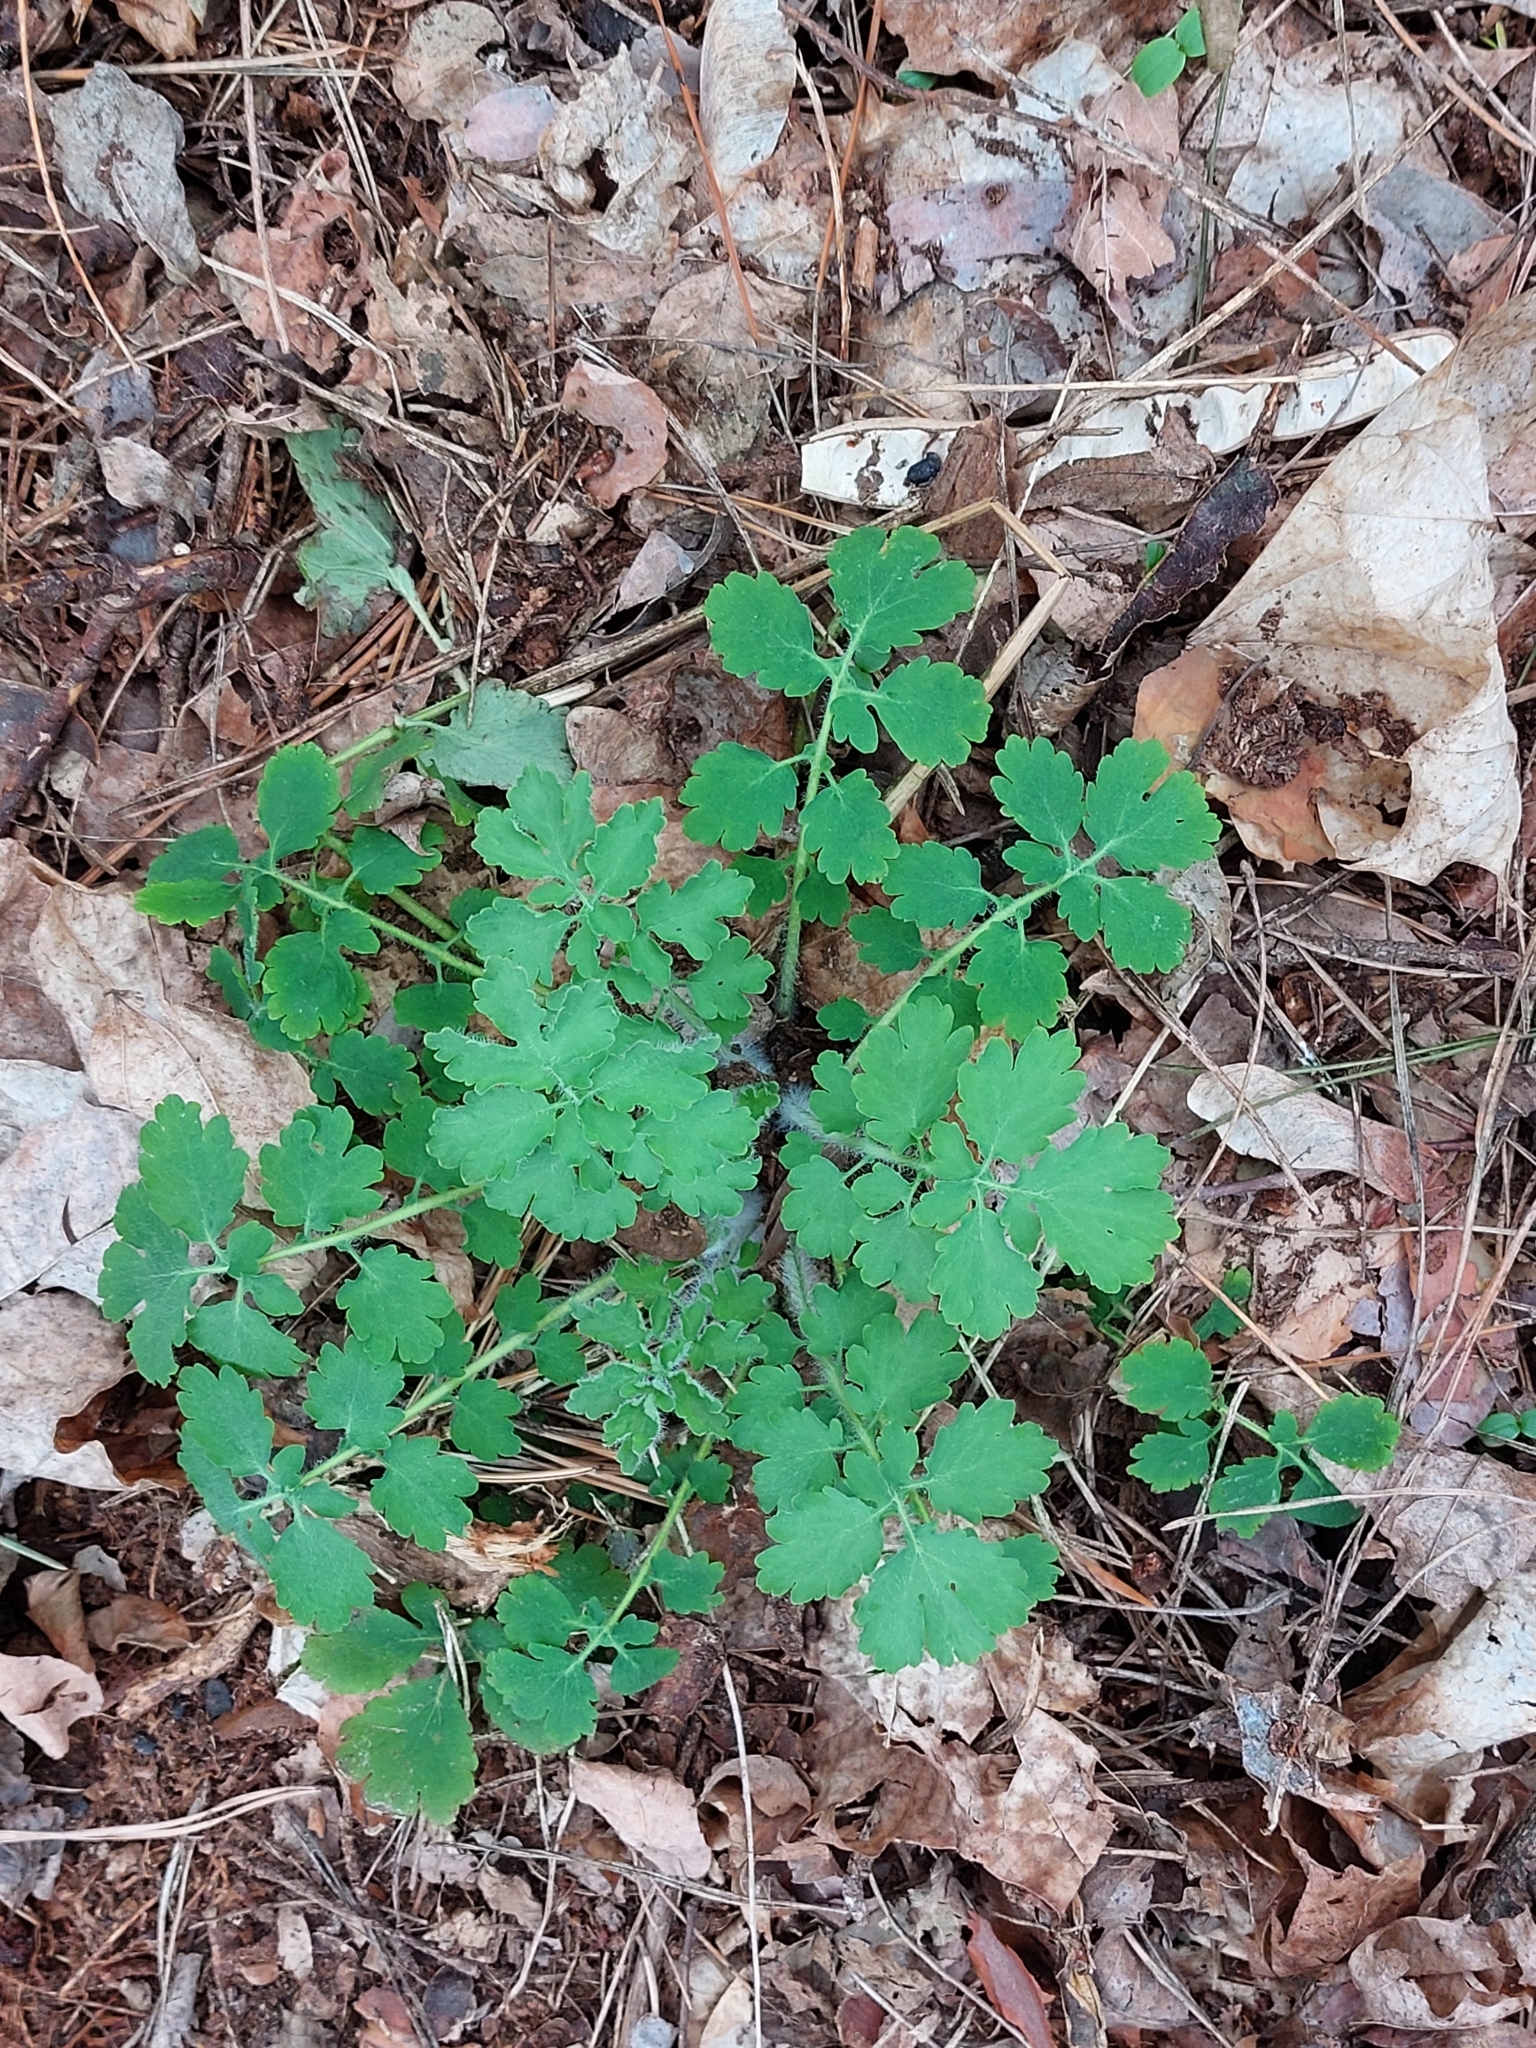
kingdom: Plantae
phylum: Tracheophyta
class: Magnoliopsida
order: Ranunculales
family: Papaveraceae
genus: Chelidonium
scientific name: Chelidonium majus
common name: Greater celandine
